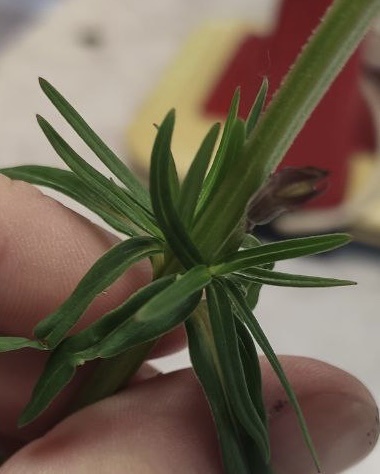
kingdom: Plantae
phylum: Tracheophyta
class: Magnoliopsida
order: Lamiales
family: Lamiaceae
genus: Dracocephalum
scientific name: Dracocephalum ruyschiana
